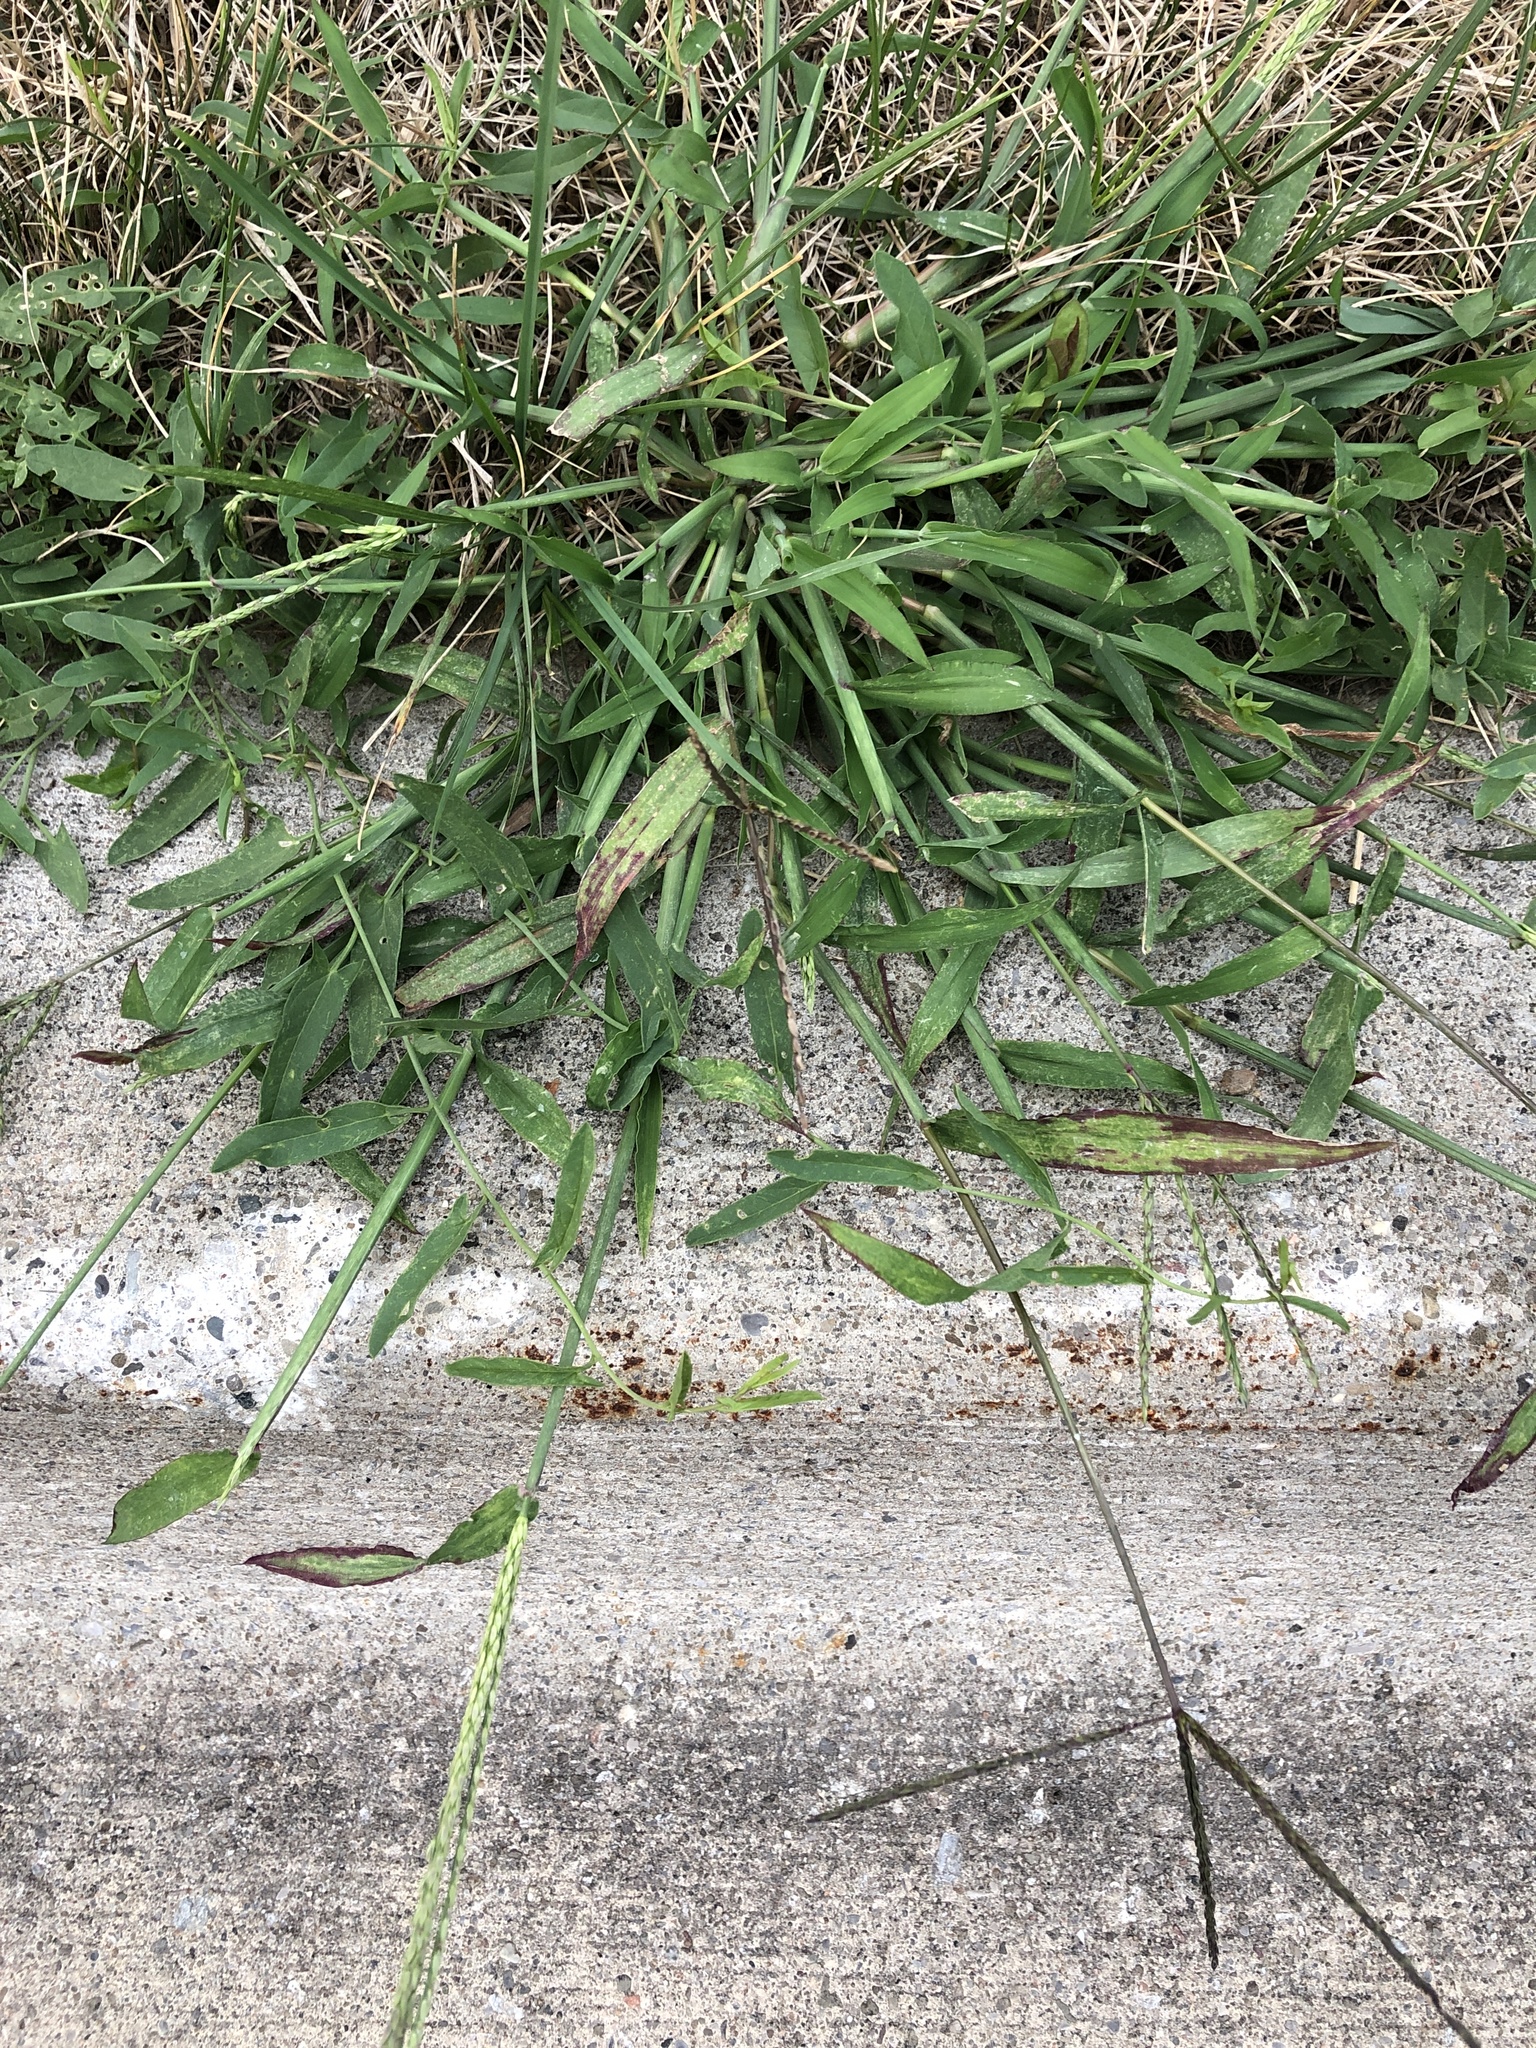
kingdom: Plantae
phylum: Tracheophyta
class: Liliopsida
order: Poales
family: Poaceae
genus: Digitaria
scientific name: Digitaria sanguinalis
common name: Hairy crabgrass
